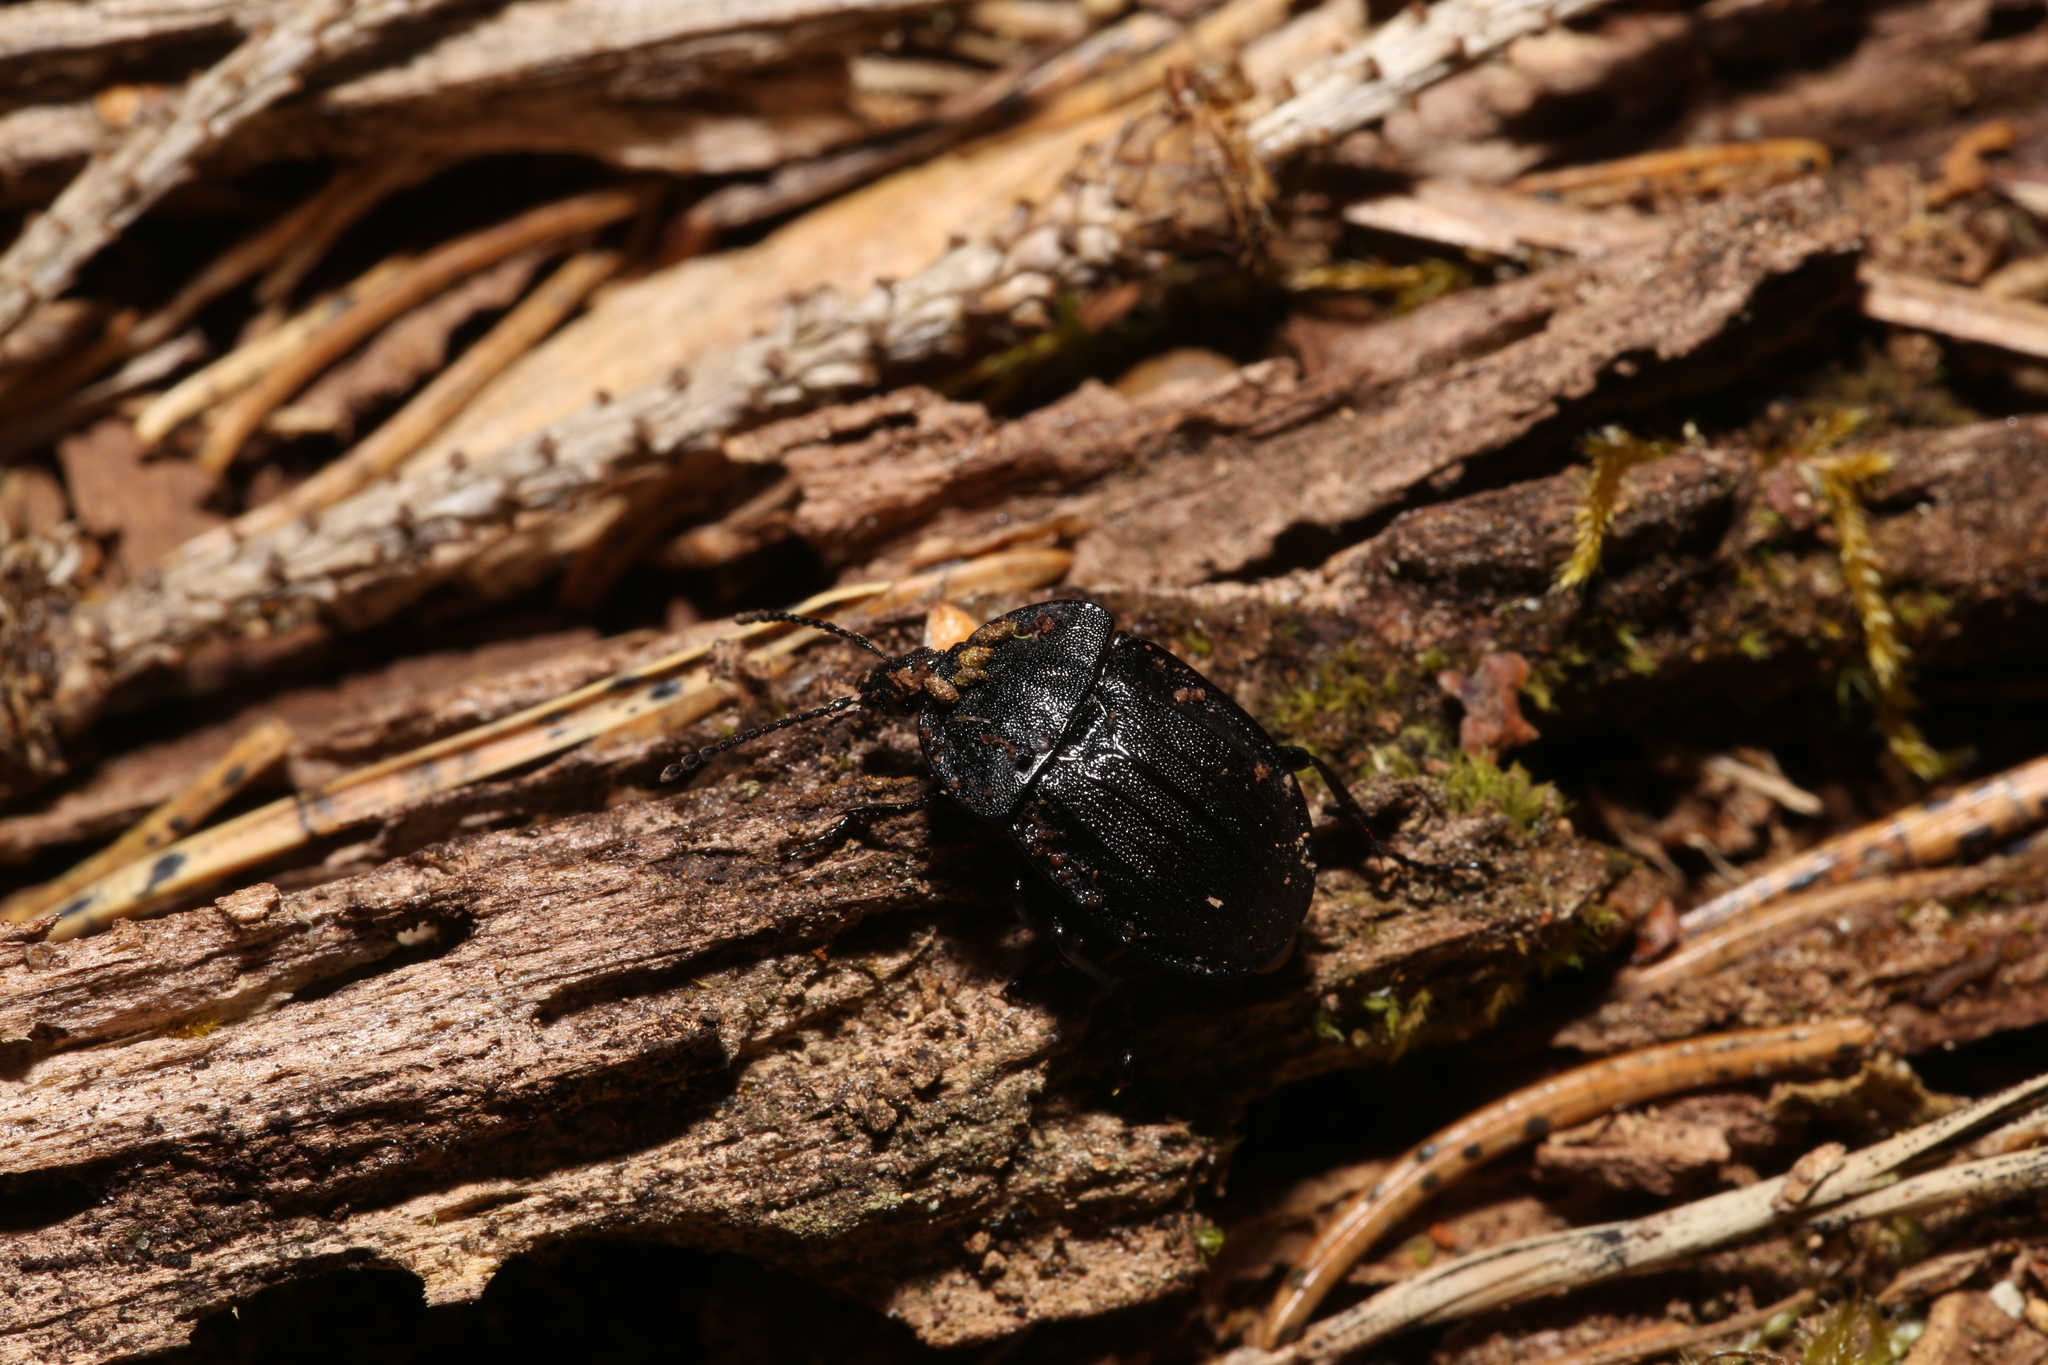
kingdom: Animalia
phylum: Arthropoda
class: Insecta
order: Coleoptera
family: Staphylinidae
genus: Silpha
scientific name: Silpha atrata
